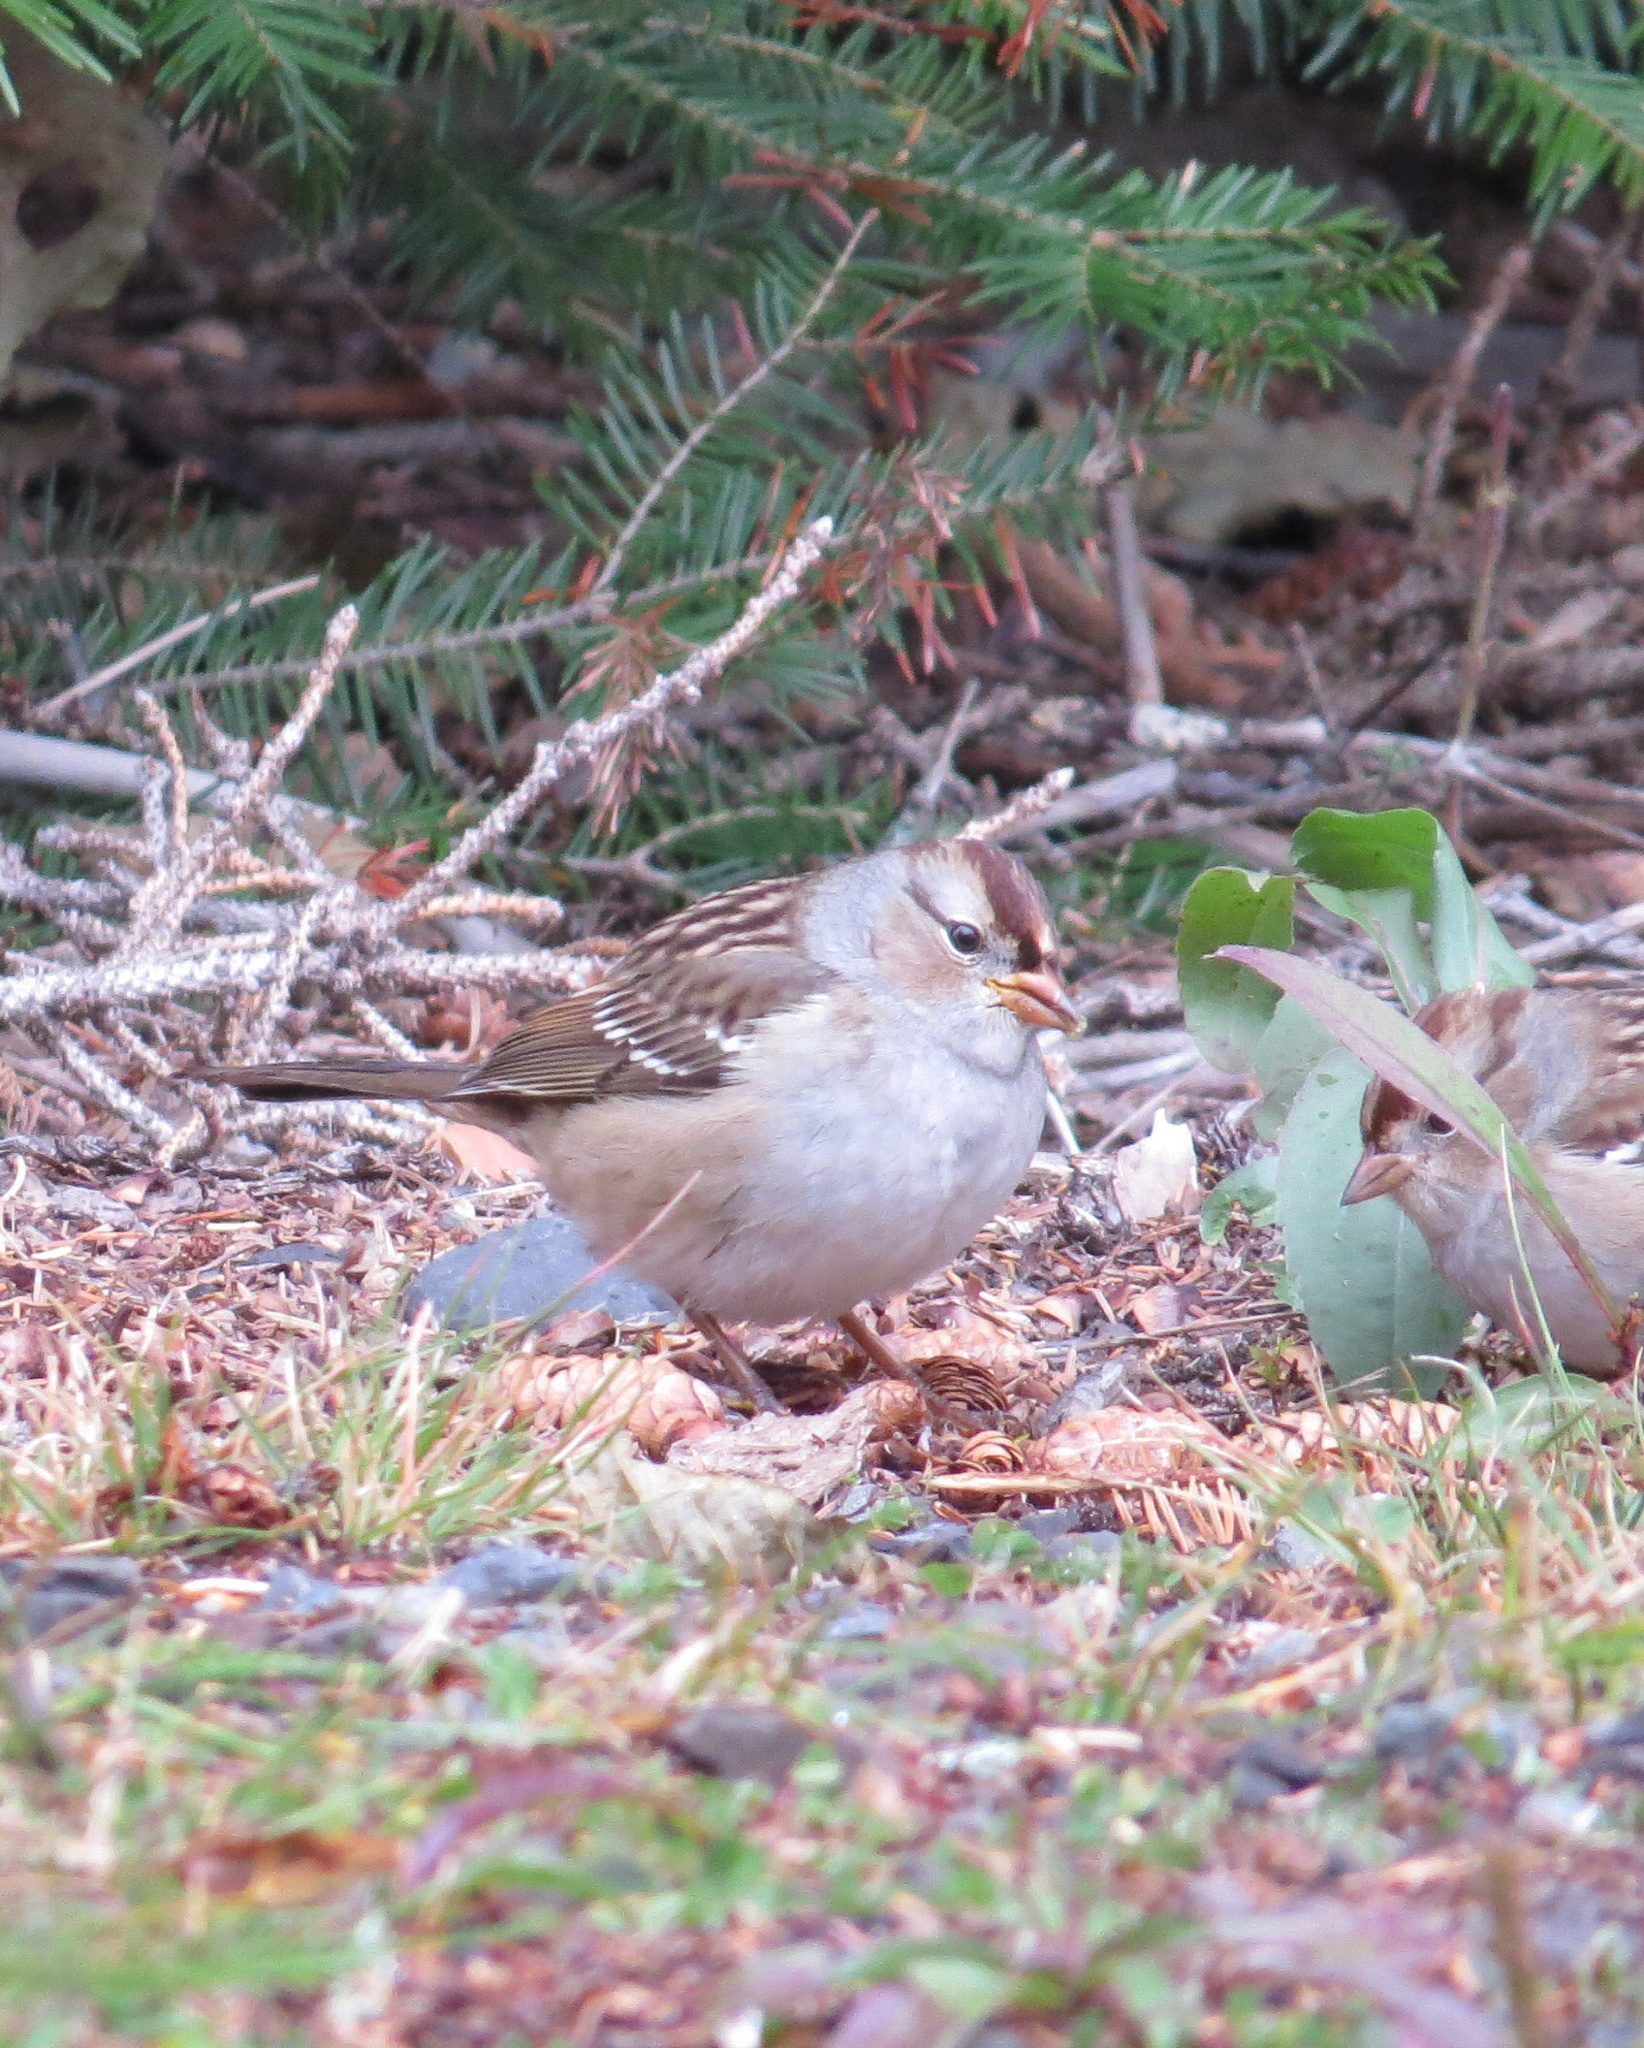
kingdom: Animalia
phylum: Chordata
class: Aves
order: Passeriformes
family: Passerellidae
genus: Zonotrichia
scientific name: Zonotrichia leucophrys
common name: White-crowned sparrow
